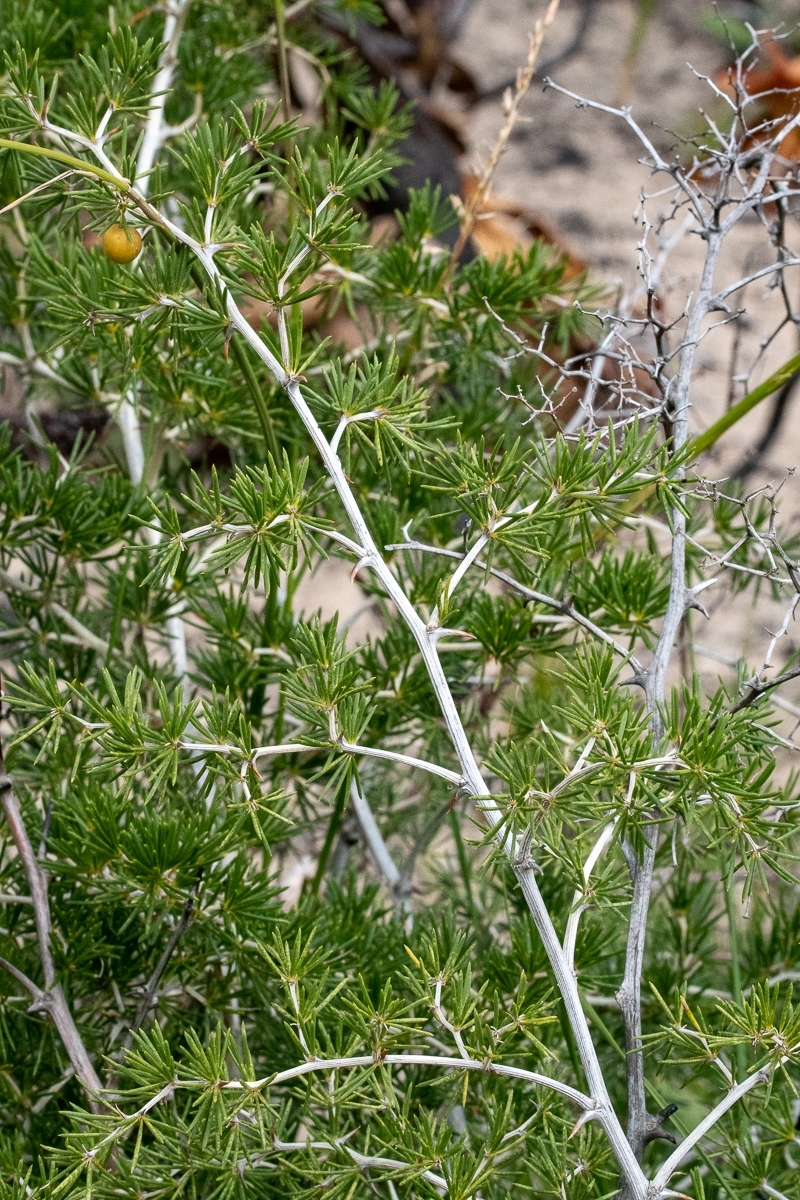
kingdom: Plantae
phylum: Tracheophyta
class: Liliopsida
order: Asparagales
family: Asparagaceae
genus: Asparagus
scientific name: Asparagus lignosus
